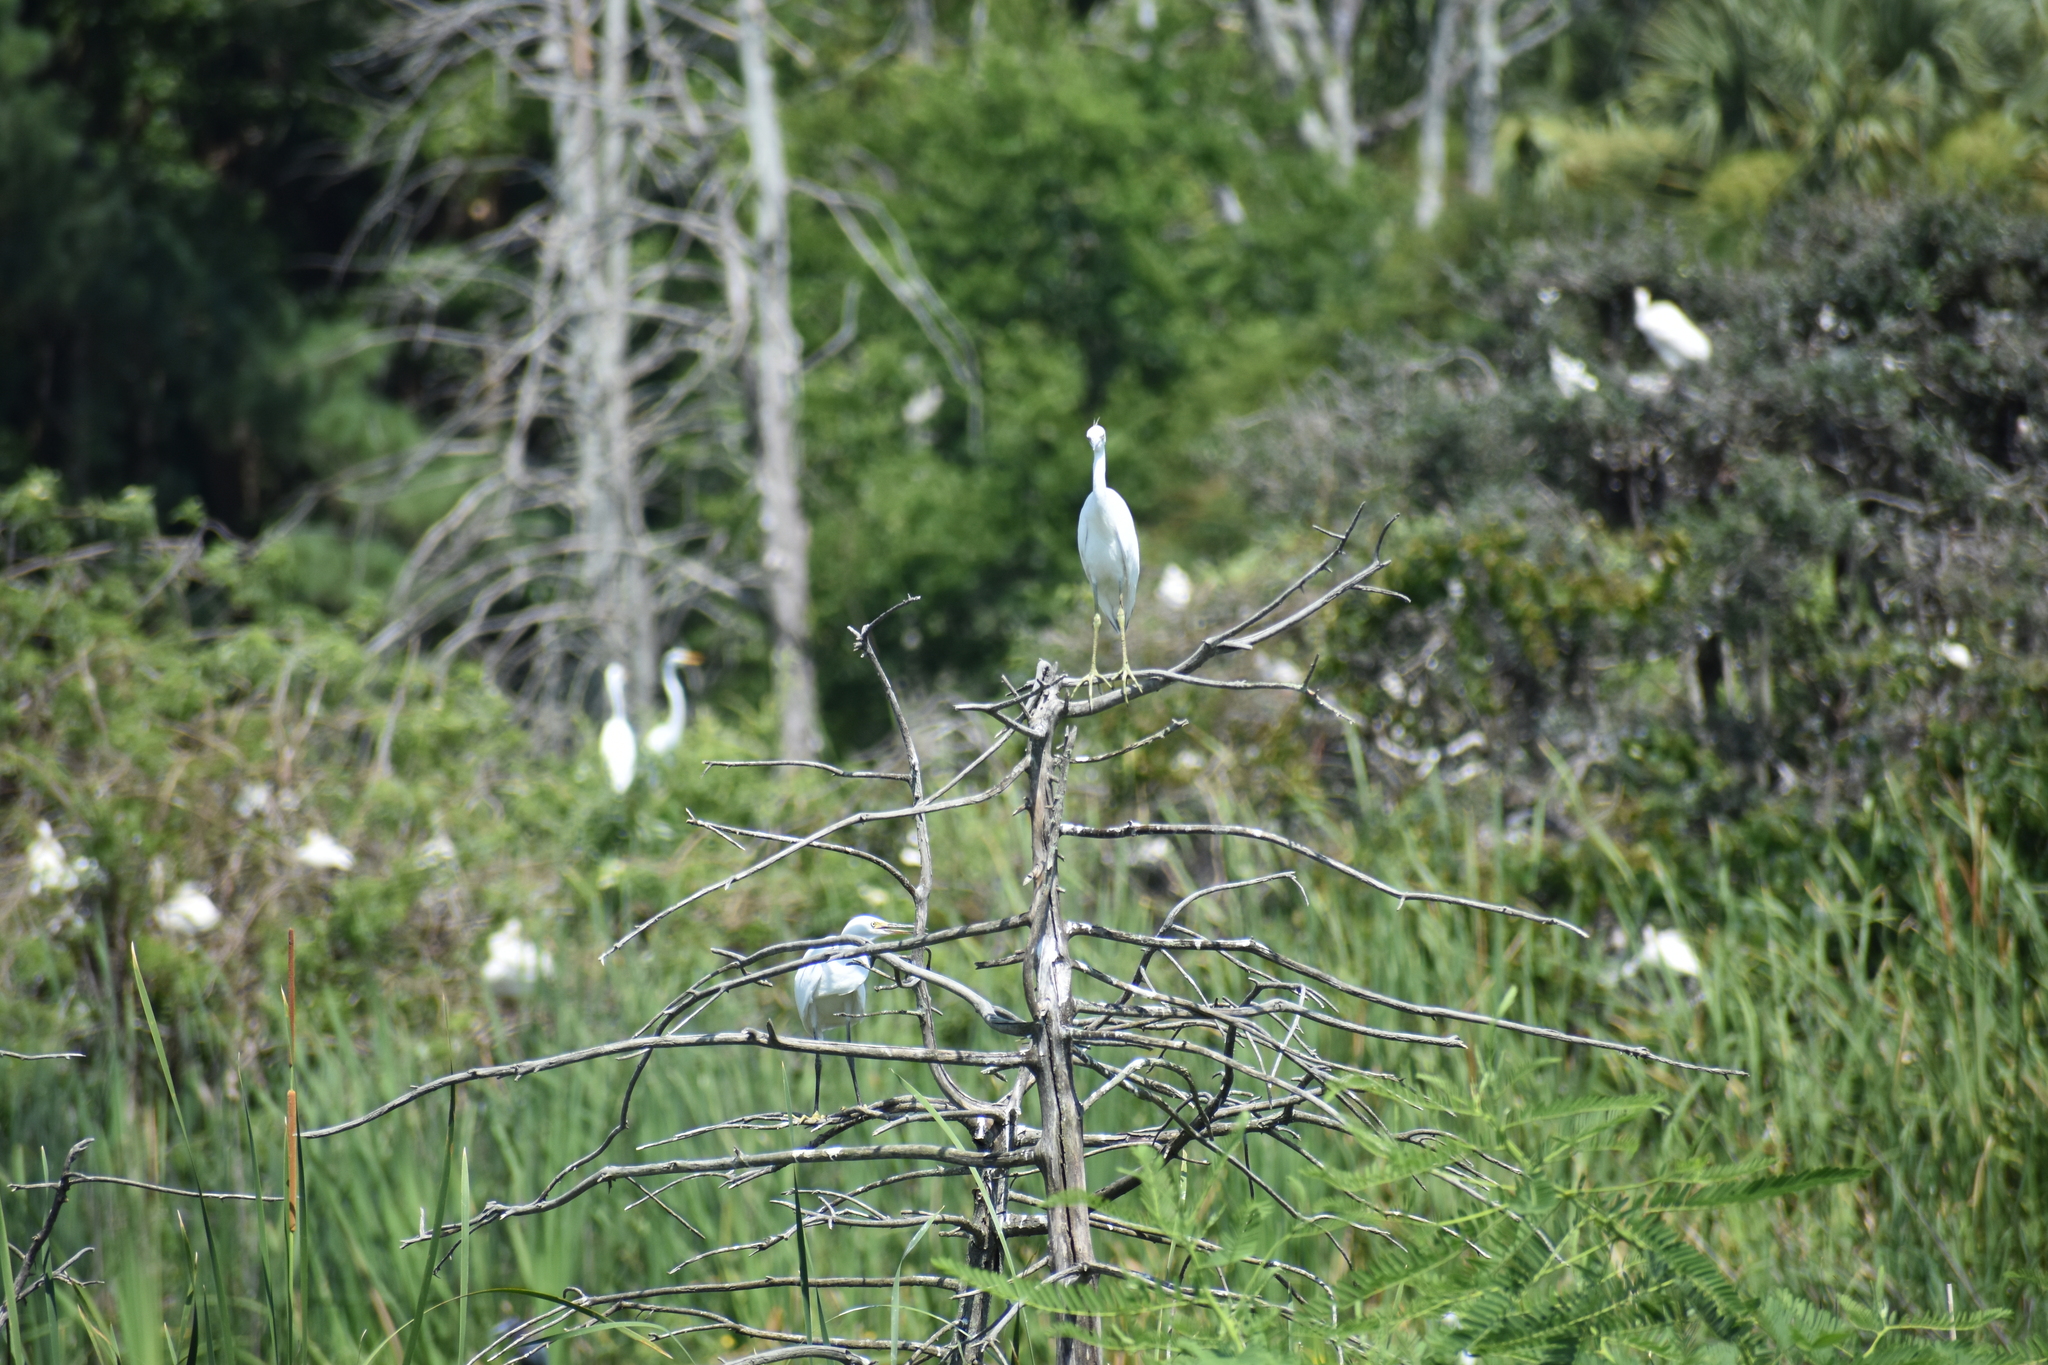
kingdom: Animalia
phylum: Chordata
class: Aves
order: Pelecaniformes
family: Ardeidae
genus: Egretta
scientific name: Egretta thula
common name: Snowy egret
